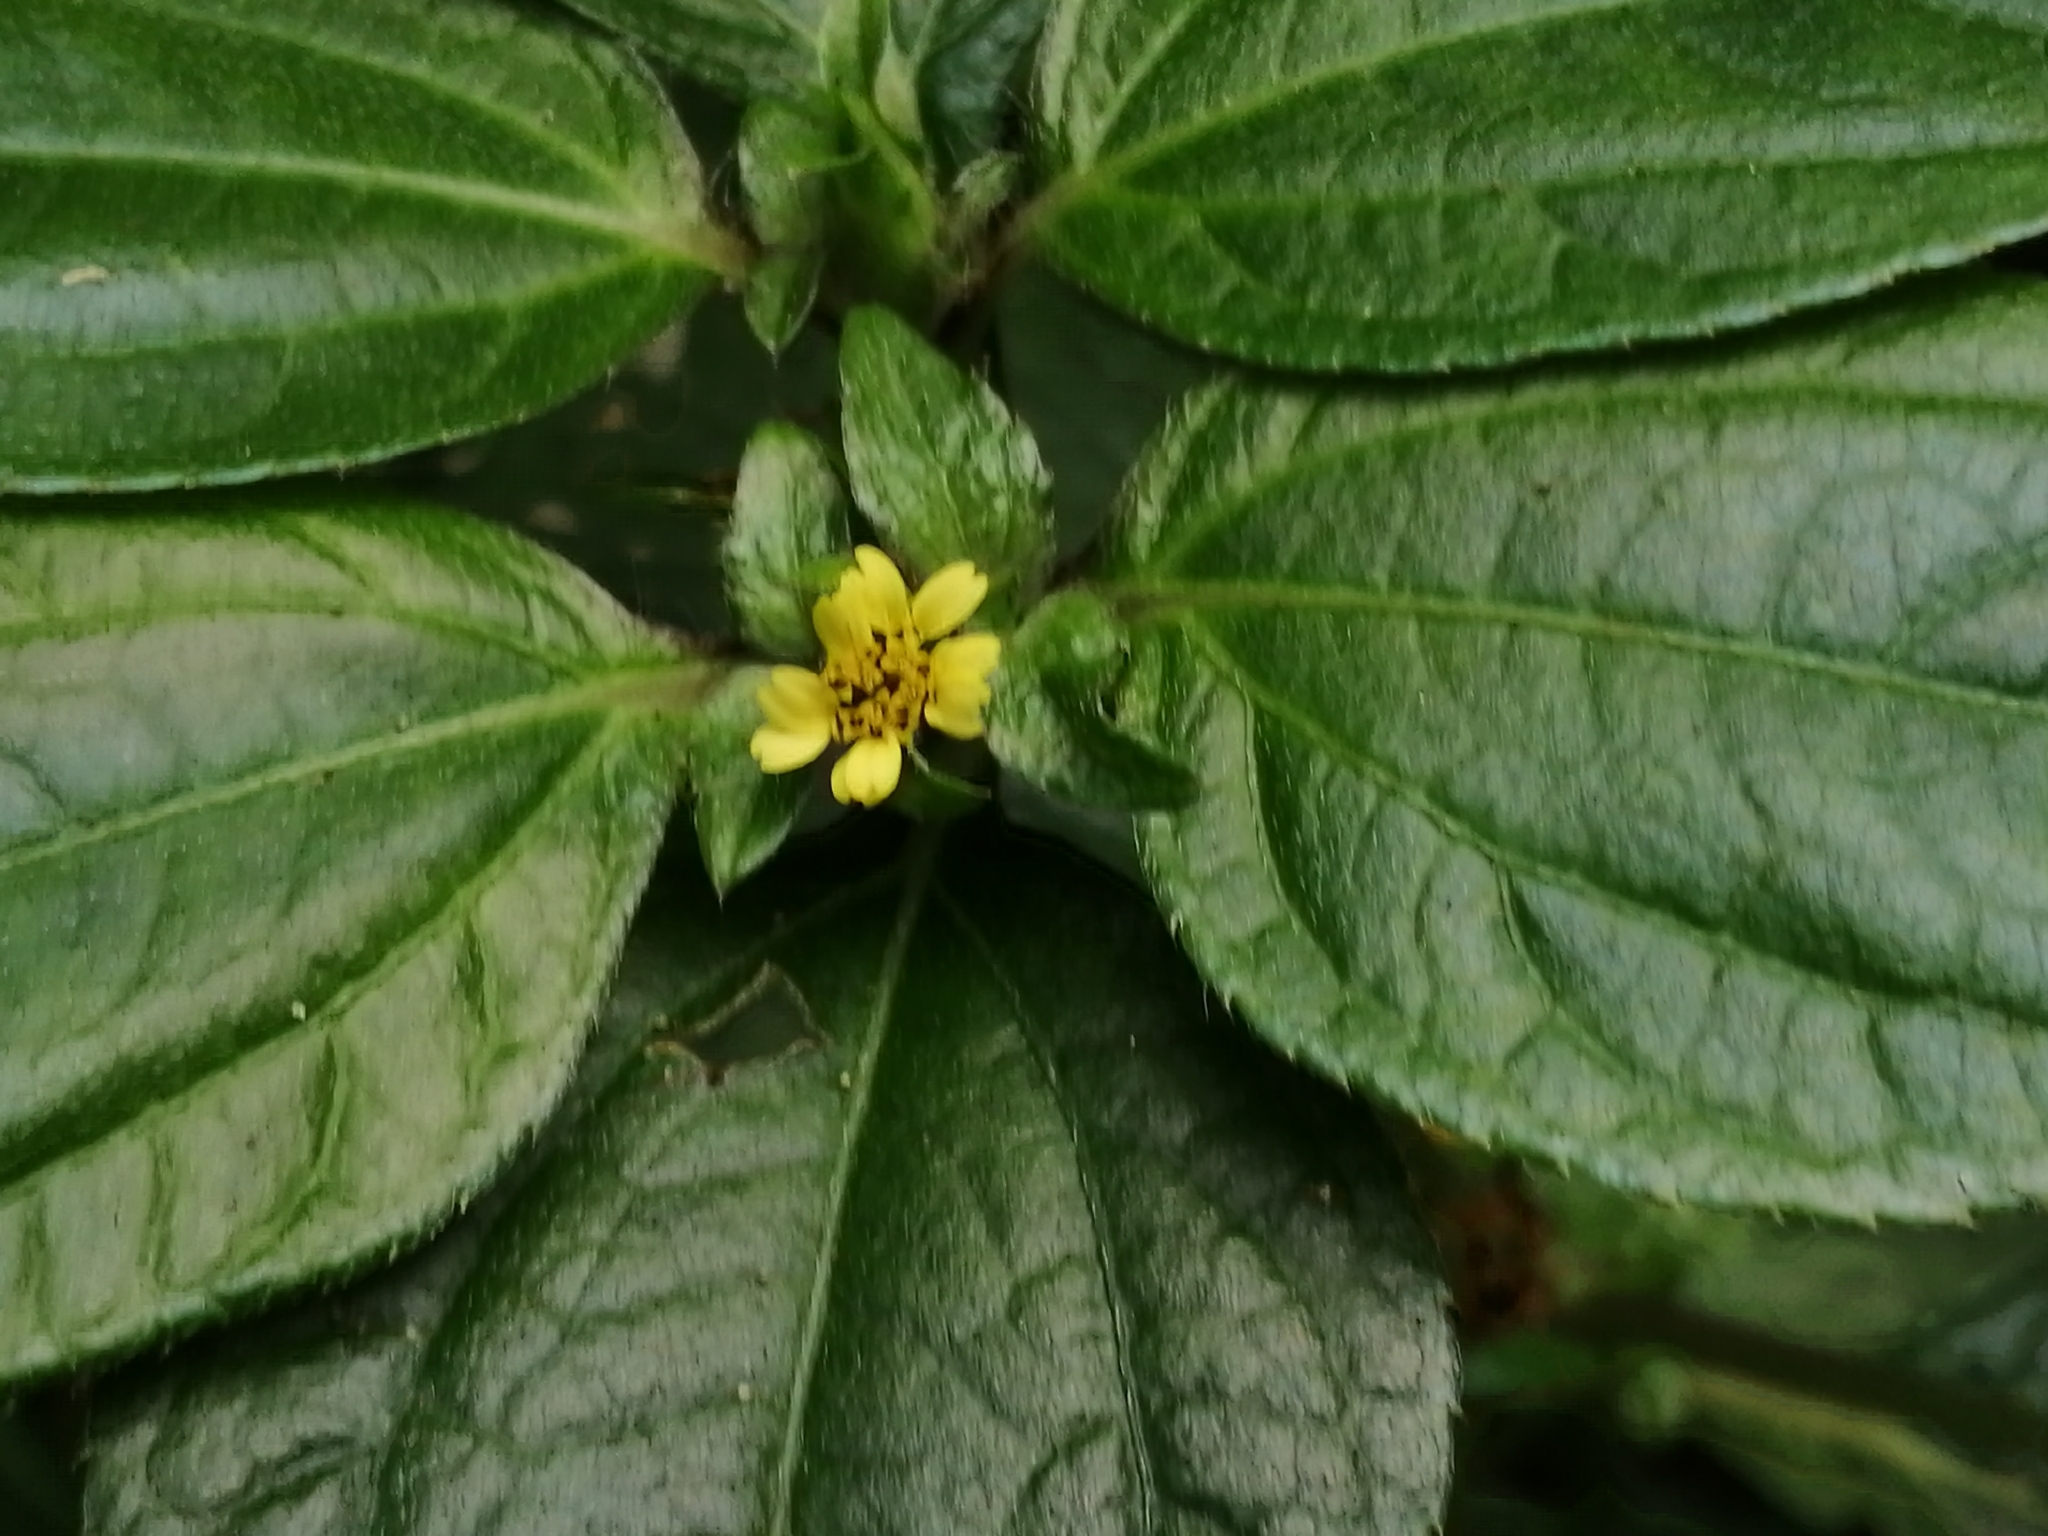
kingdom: Plantae
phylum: Tracheophyta
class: Magnoliopsida
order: Asterales
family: Asteraceae
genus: Synedrella
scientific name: Synedrella nodiflora
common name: Nodeweed
